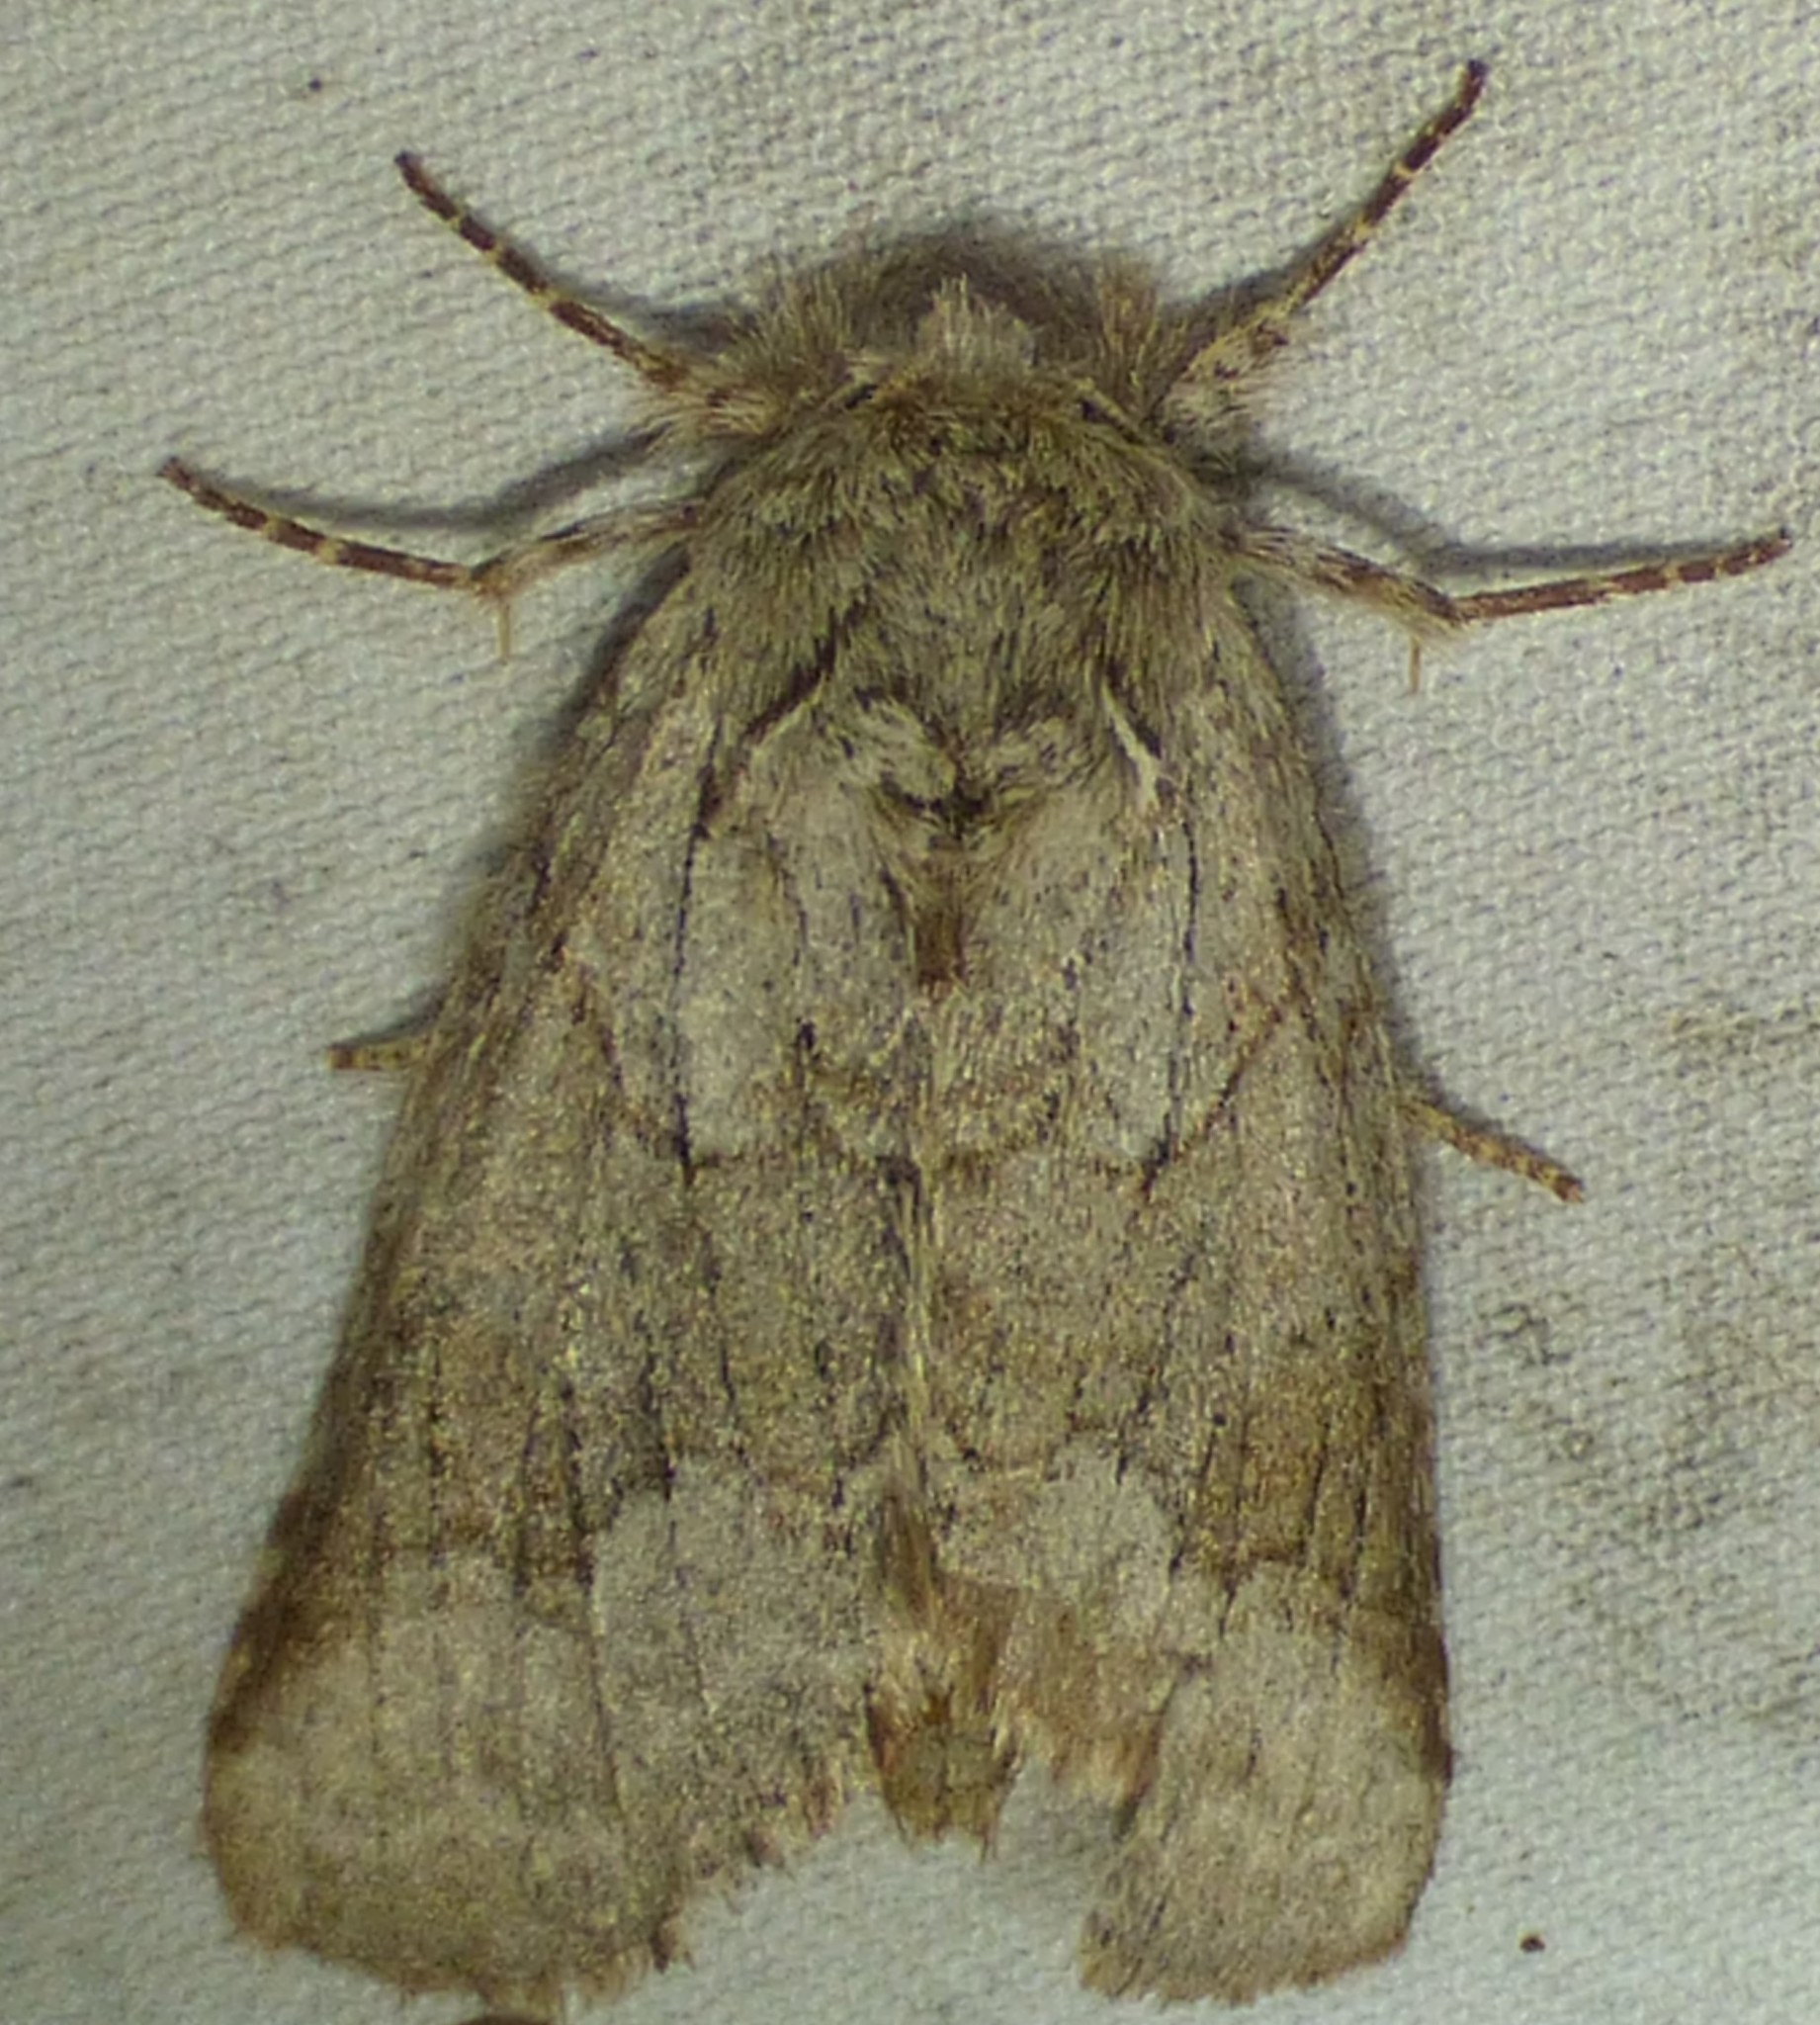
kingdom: Animalia
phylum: Arthropoda
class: Insecta
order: Lepidoptera
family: Notodontidae
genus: Lochmaeus
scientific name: Lochmaeus bilineata
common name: Double-lined prominent
